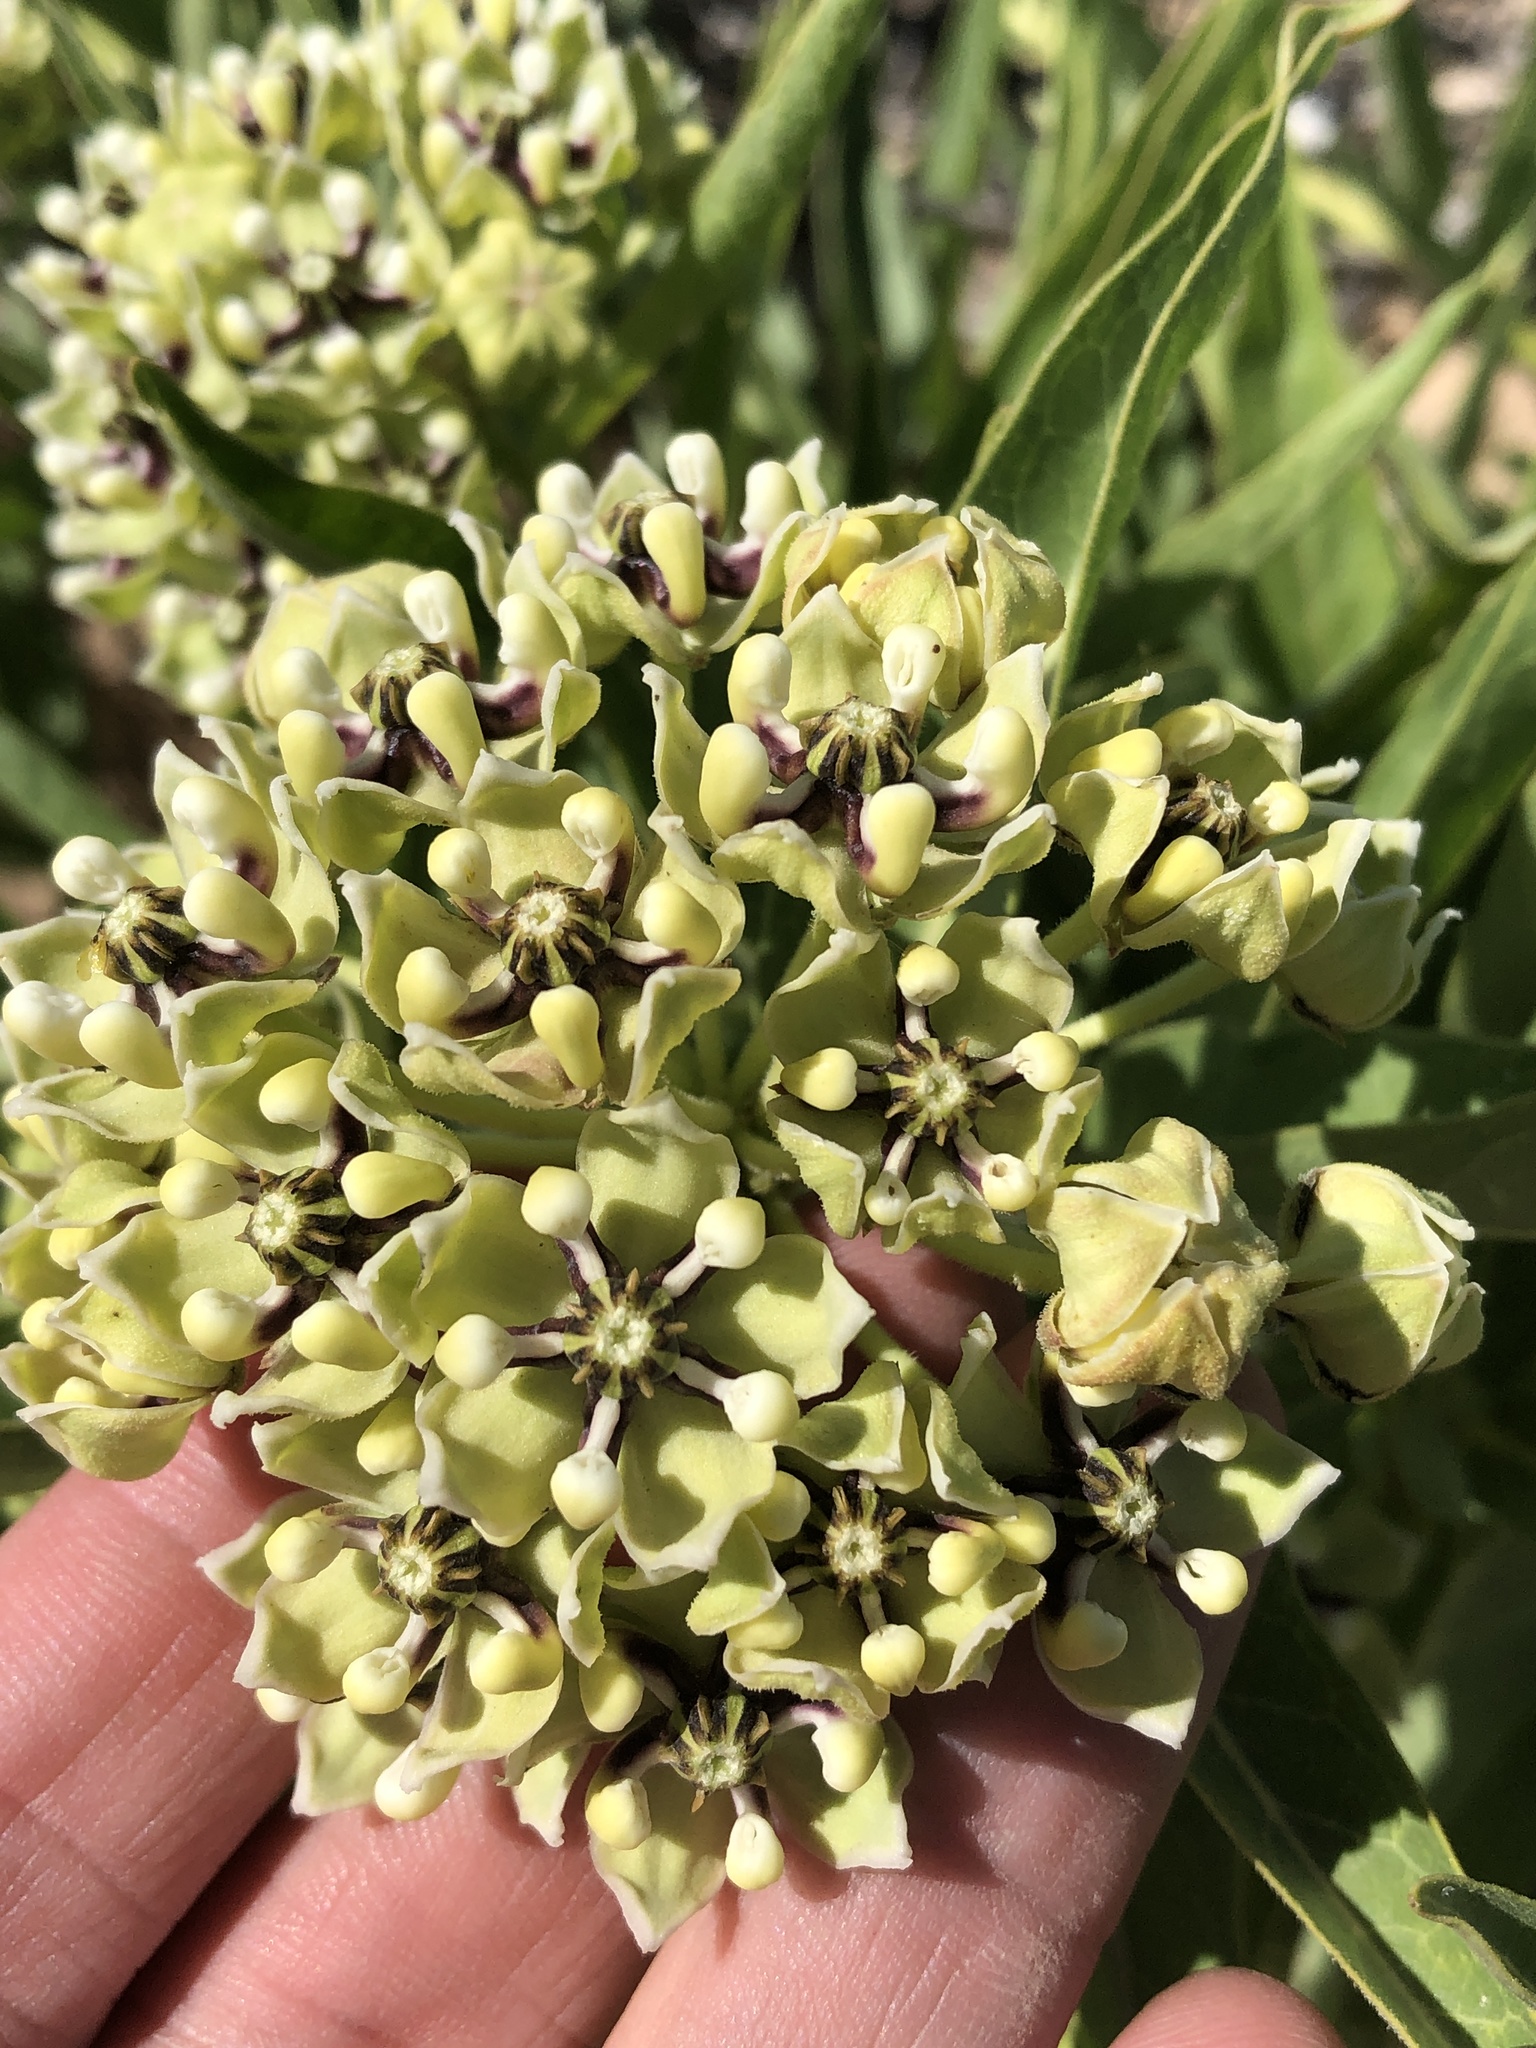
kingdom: Plantae
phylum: Tracheophyta
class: Magnoliopsida
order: Gentianales
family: Apocynaceae
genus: Asclepias
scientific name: Asclepias asperula
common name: Antelope horns
